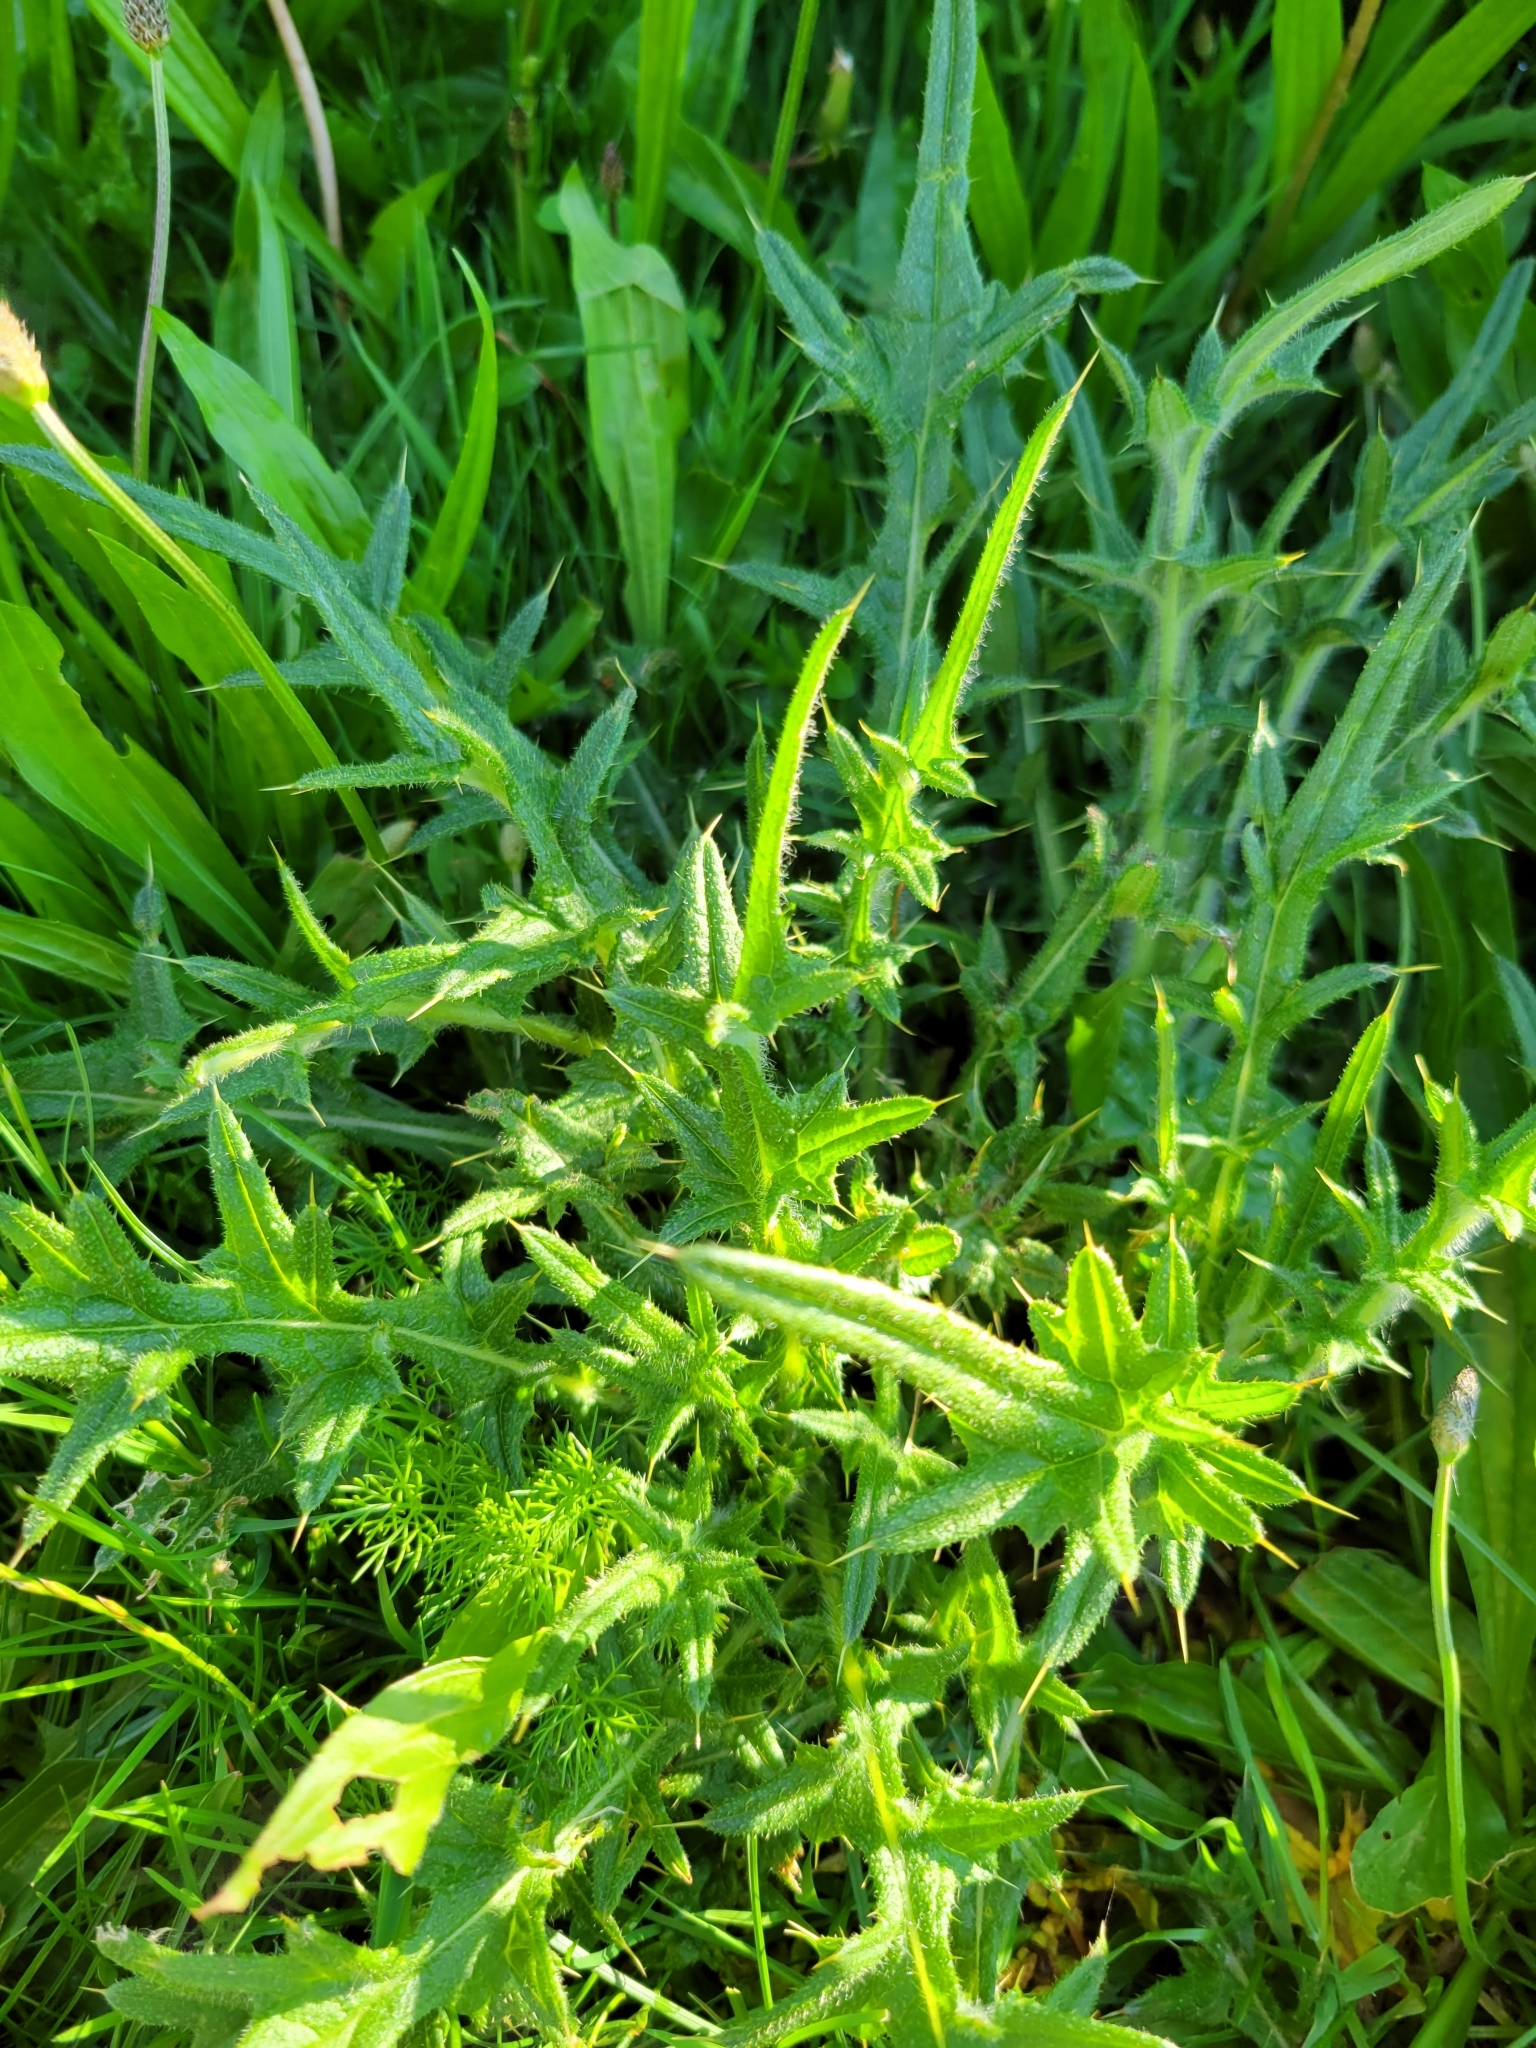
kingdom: Plantae
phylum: Tracheophyta
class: Magnoliopsida
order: Asterales
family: Asteraceae
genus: Cirsium
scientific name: Cirsium vulgare
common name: Bull thistle
